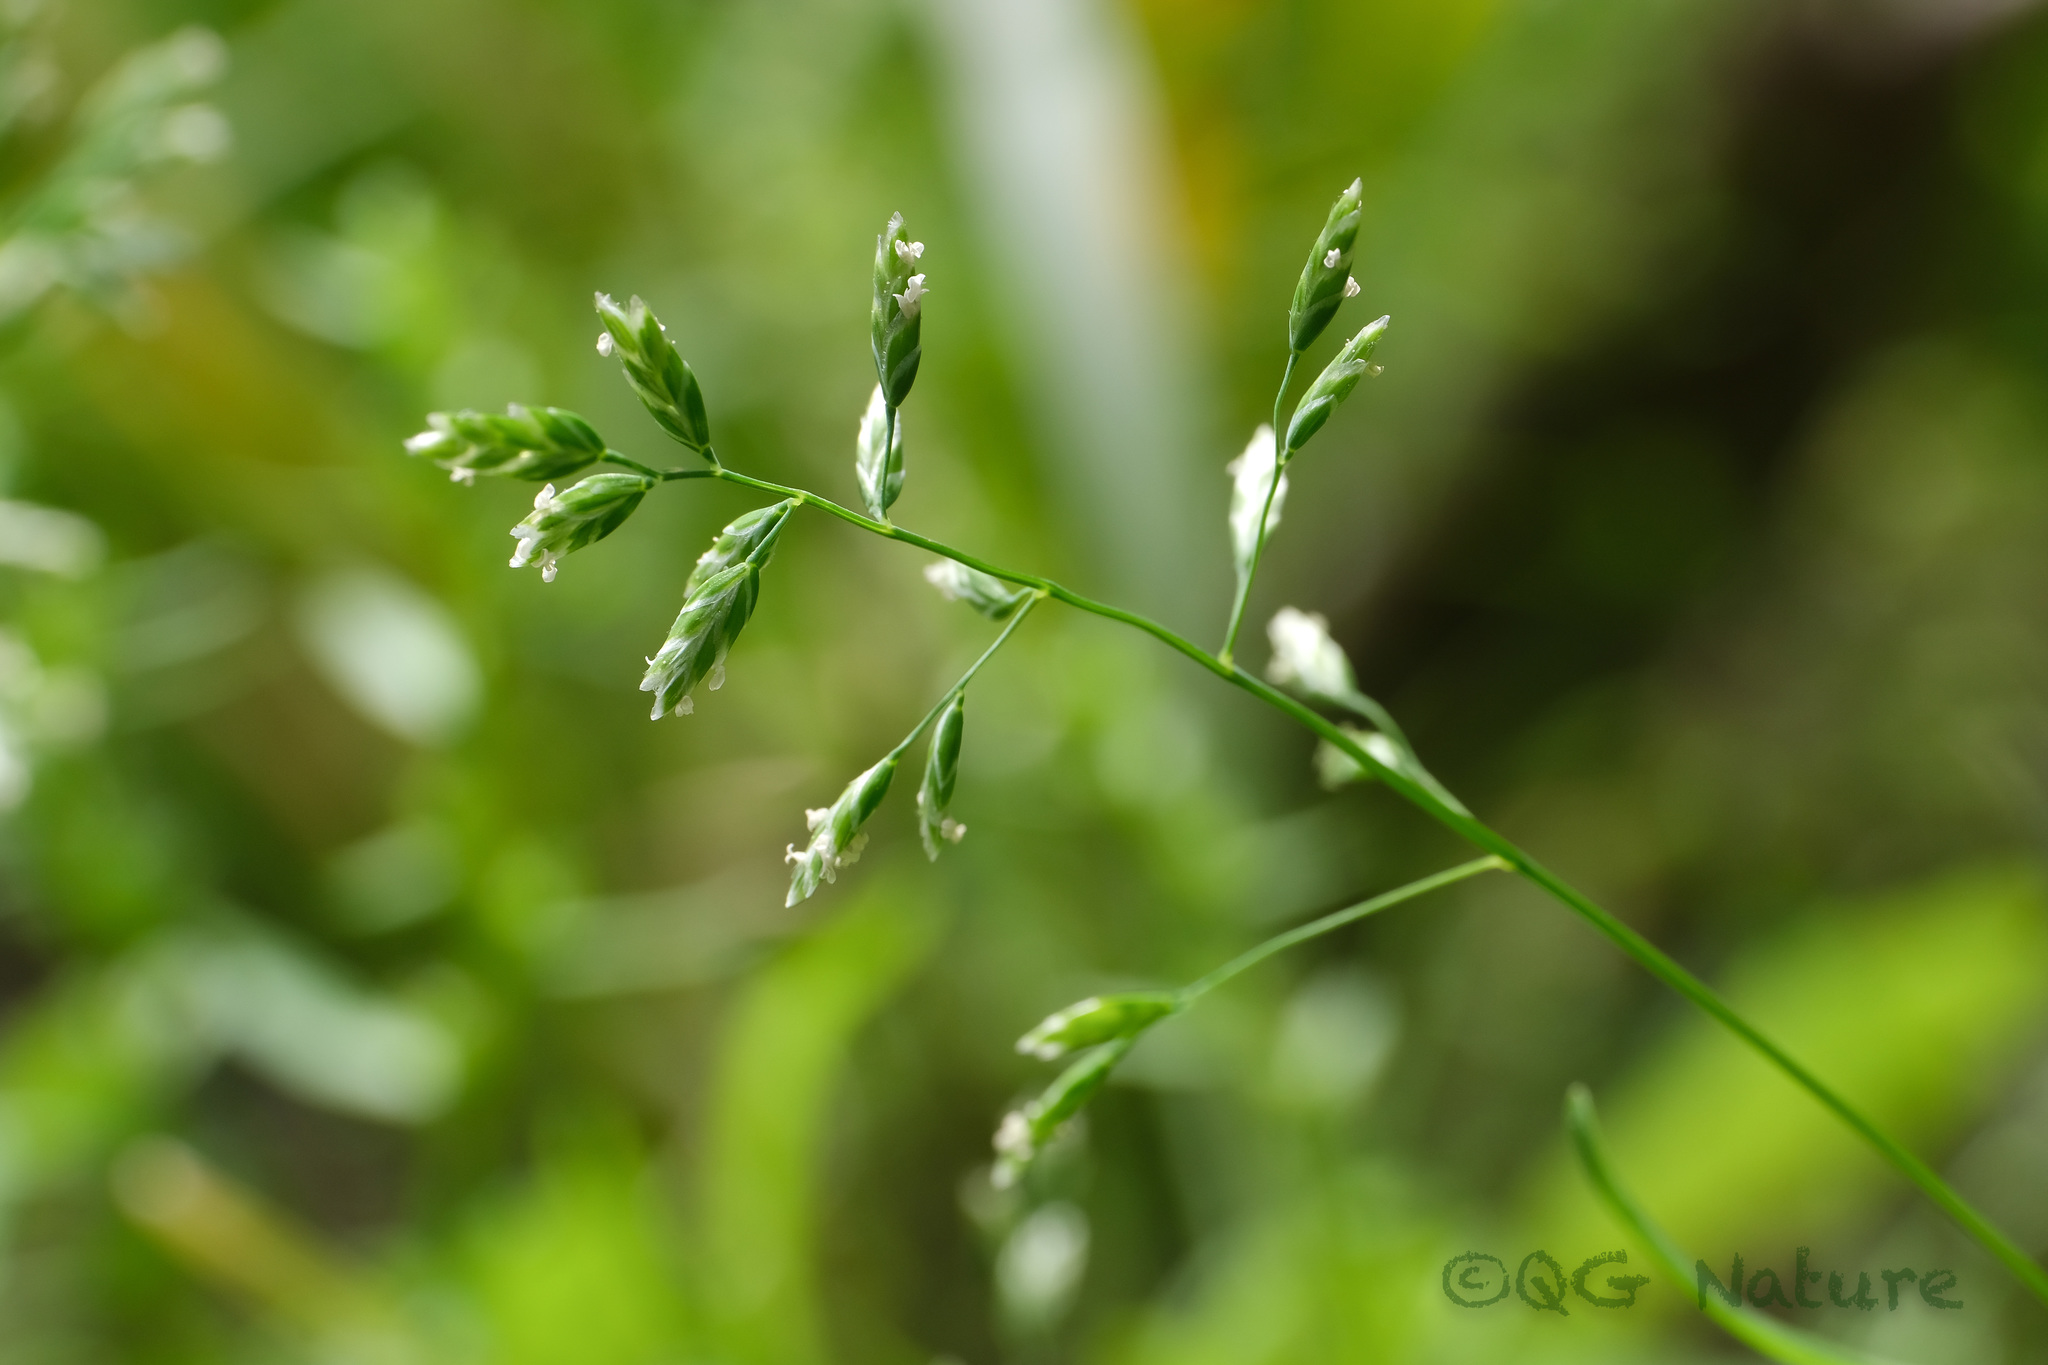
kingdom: Plantae
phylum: Tracheophyta
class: Liliopsida
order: Poales
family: Poaceae
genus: Poa
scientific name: Poa annua
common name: Annual bluegrass
